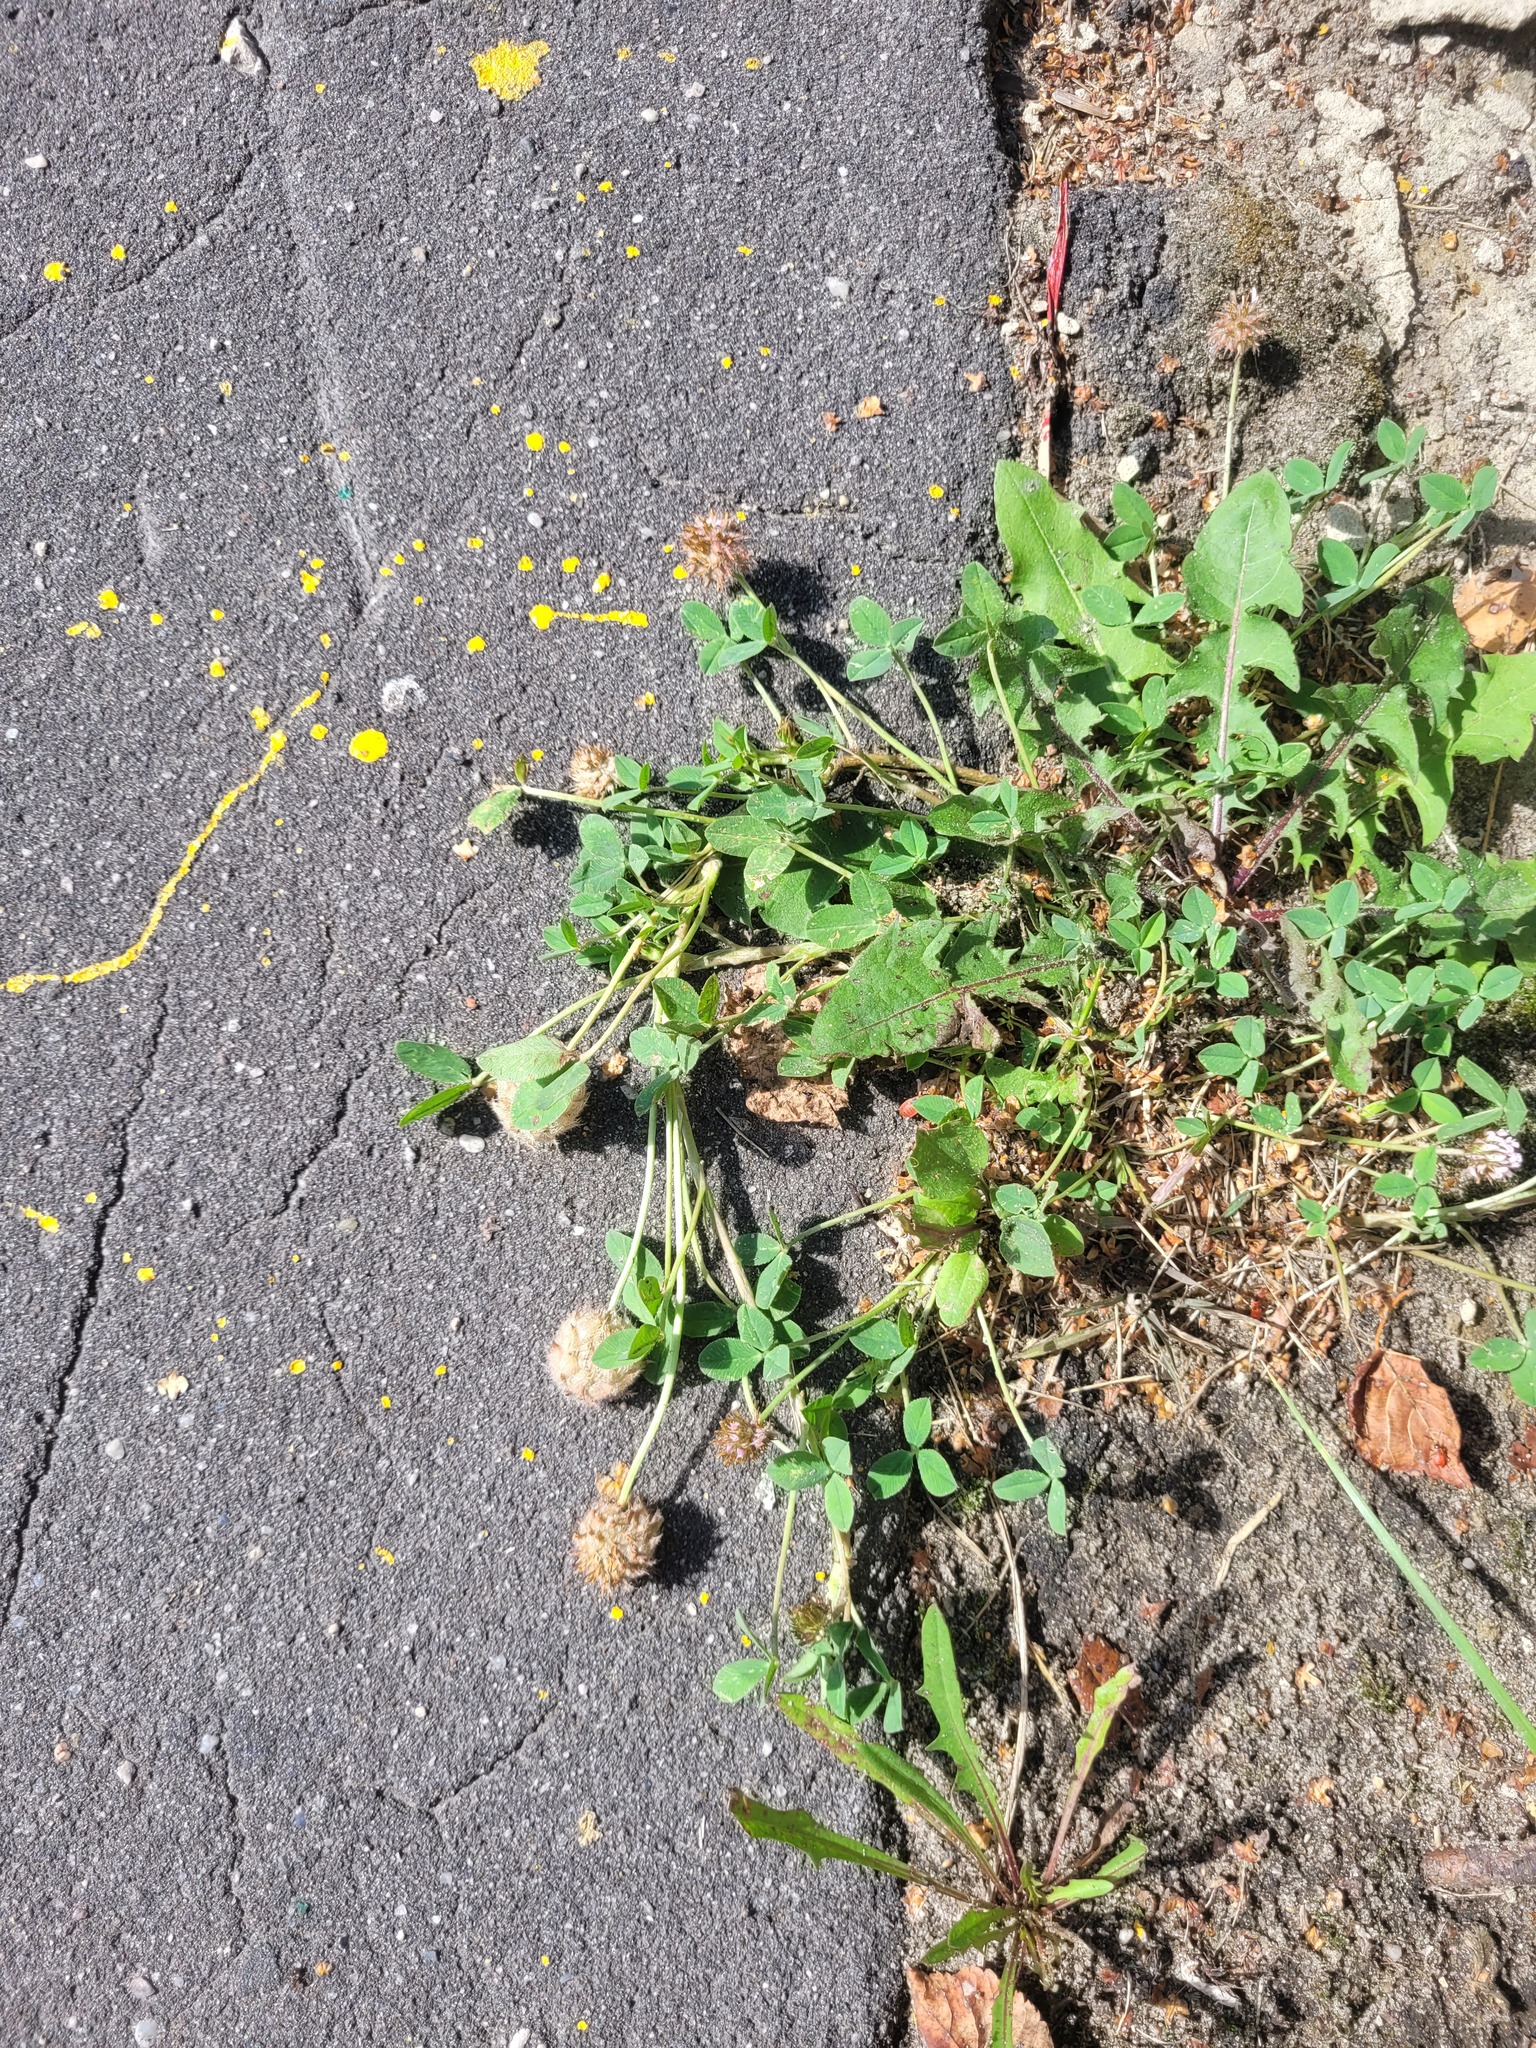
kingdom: Plantae
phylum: Tracheophyta
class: Magnoliopsida
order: Fabales
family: Fabaceae
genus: Trifolium
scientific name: Trifolium fragiferum
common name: Strawberry clover
